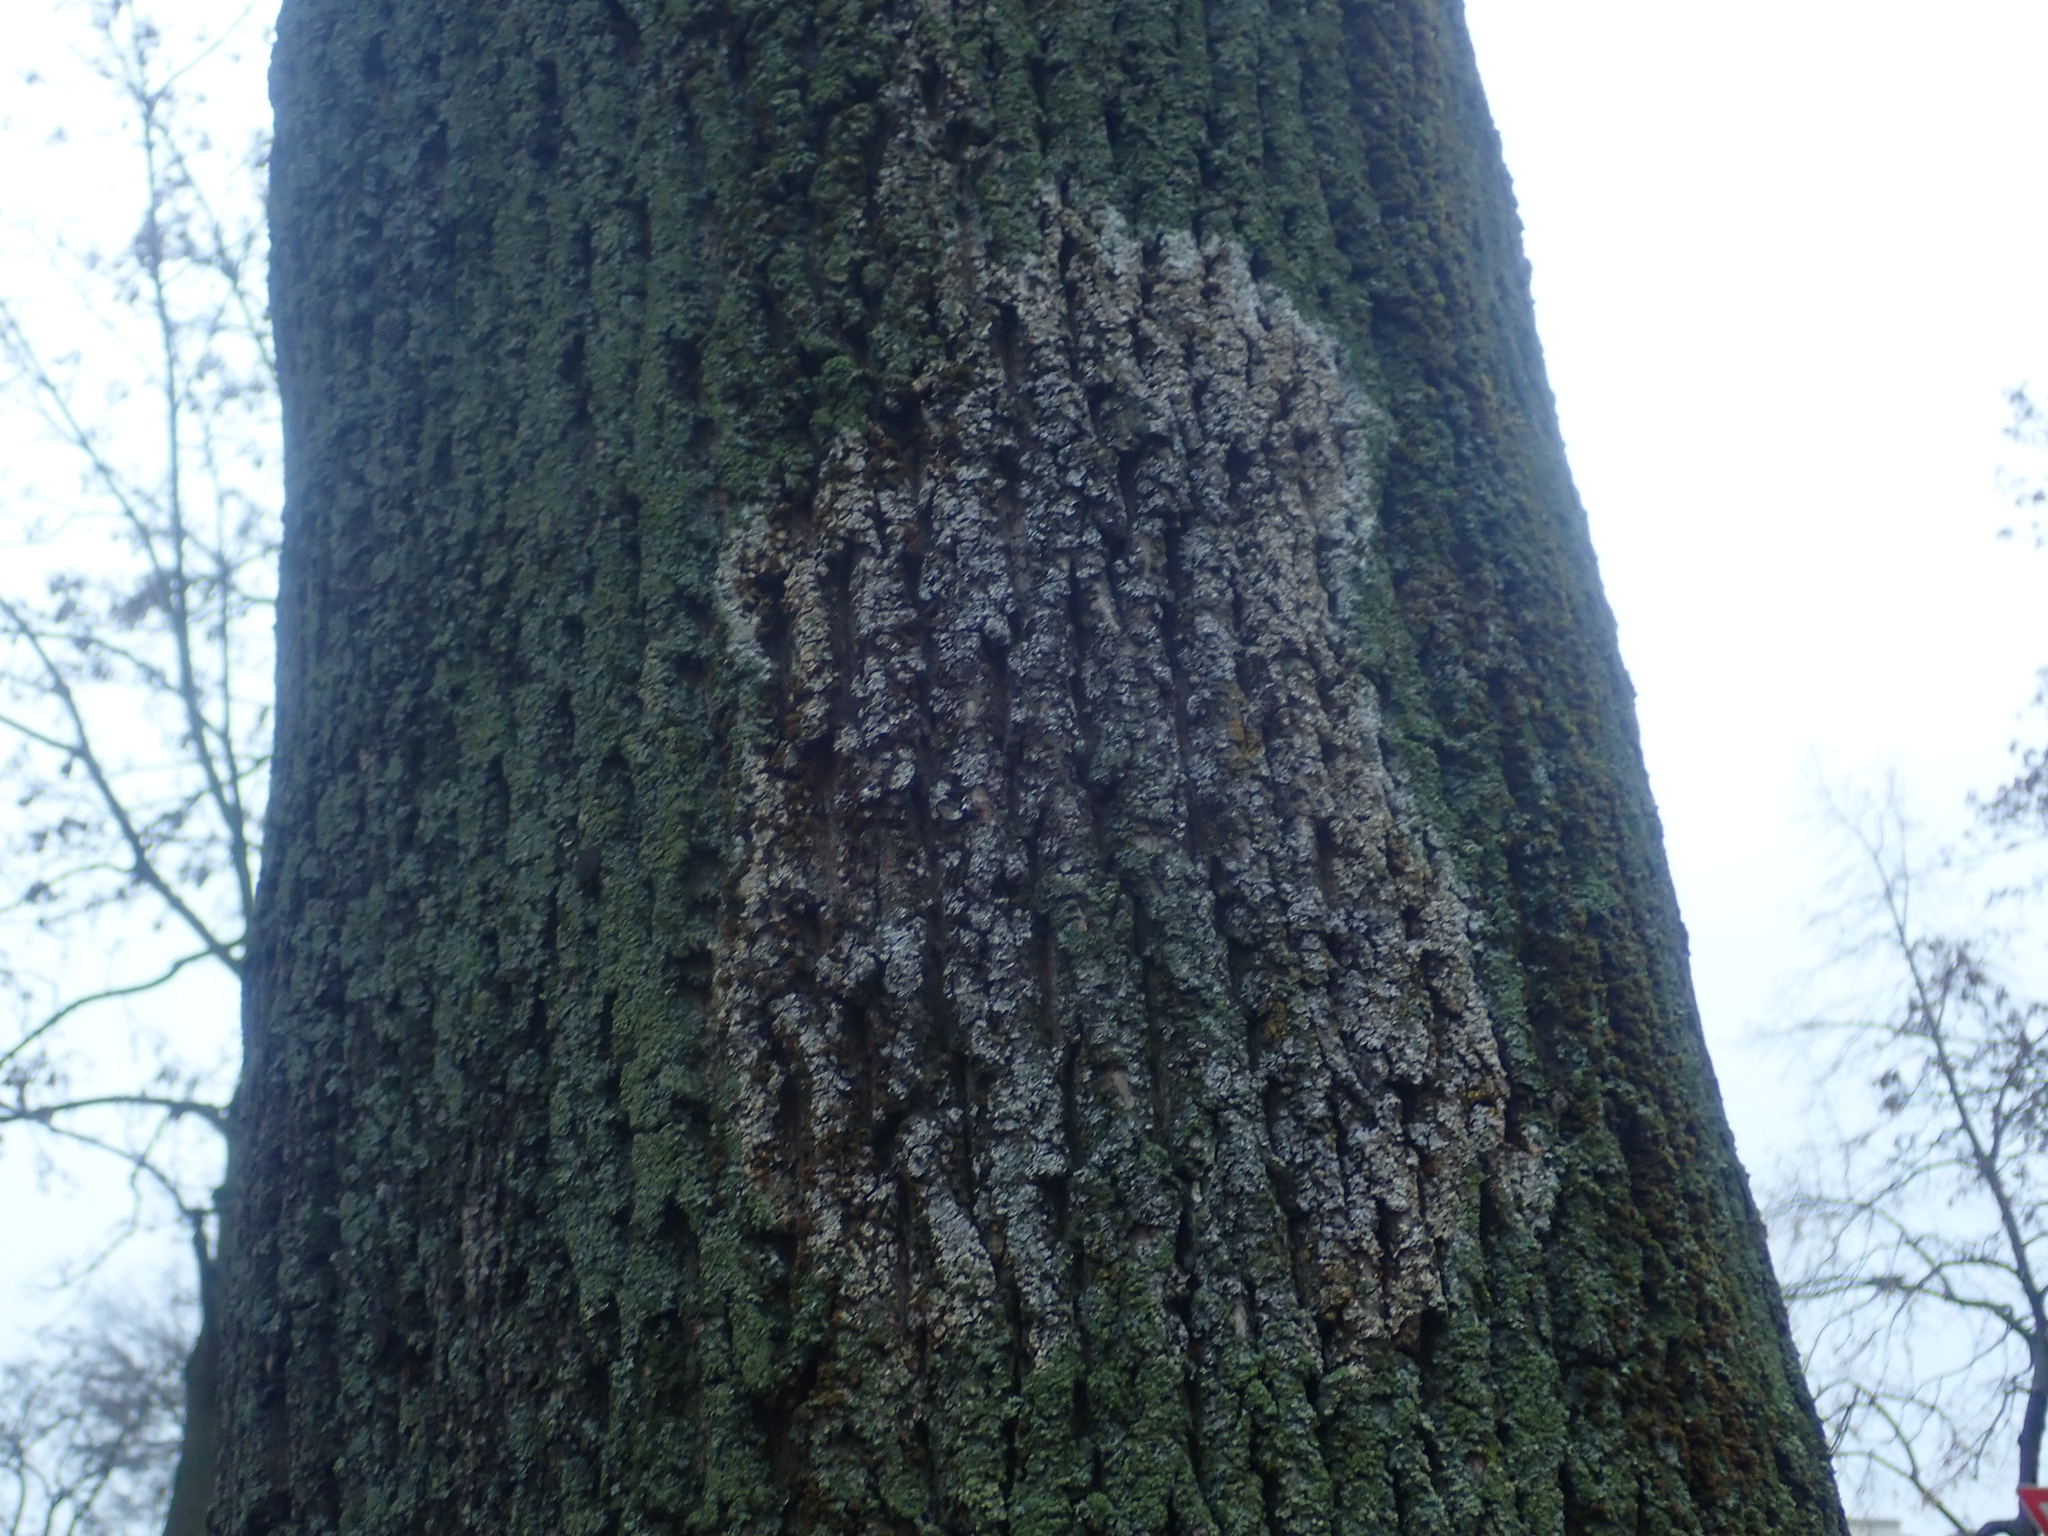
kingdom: Fungi
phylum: Basidiomycota
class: Agaricomycetes
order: Atheliales
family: Atheliaceae
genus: Athelia
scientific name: Athelia arachnoidea
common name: Candelabra duster
